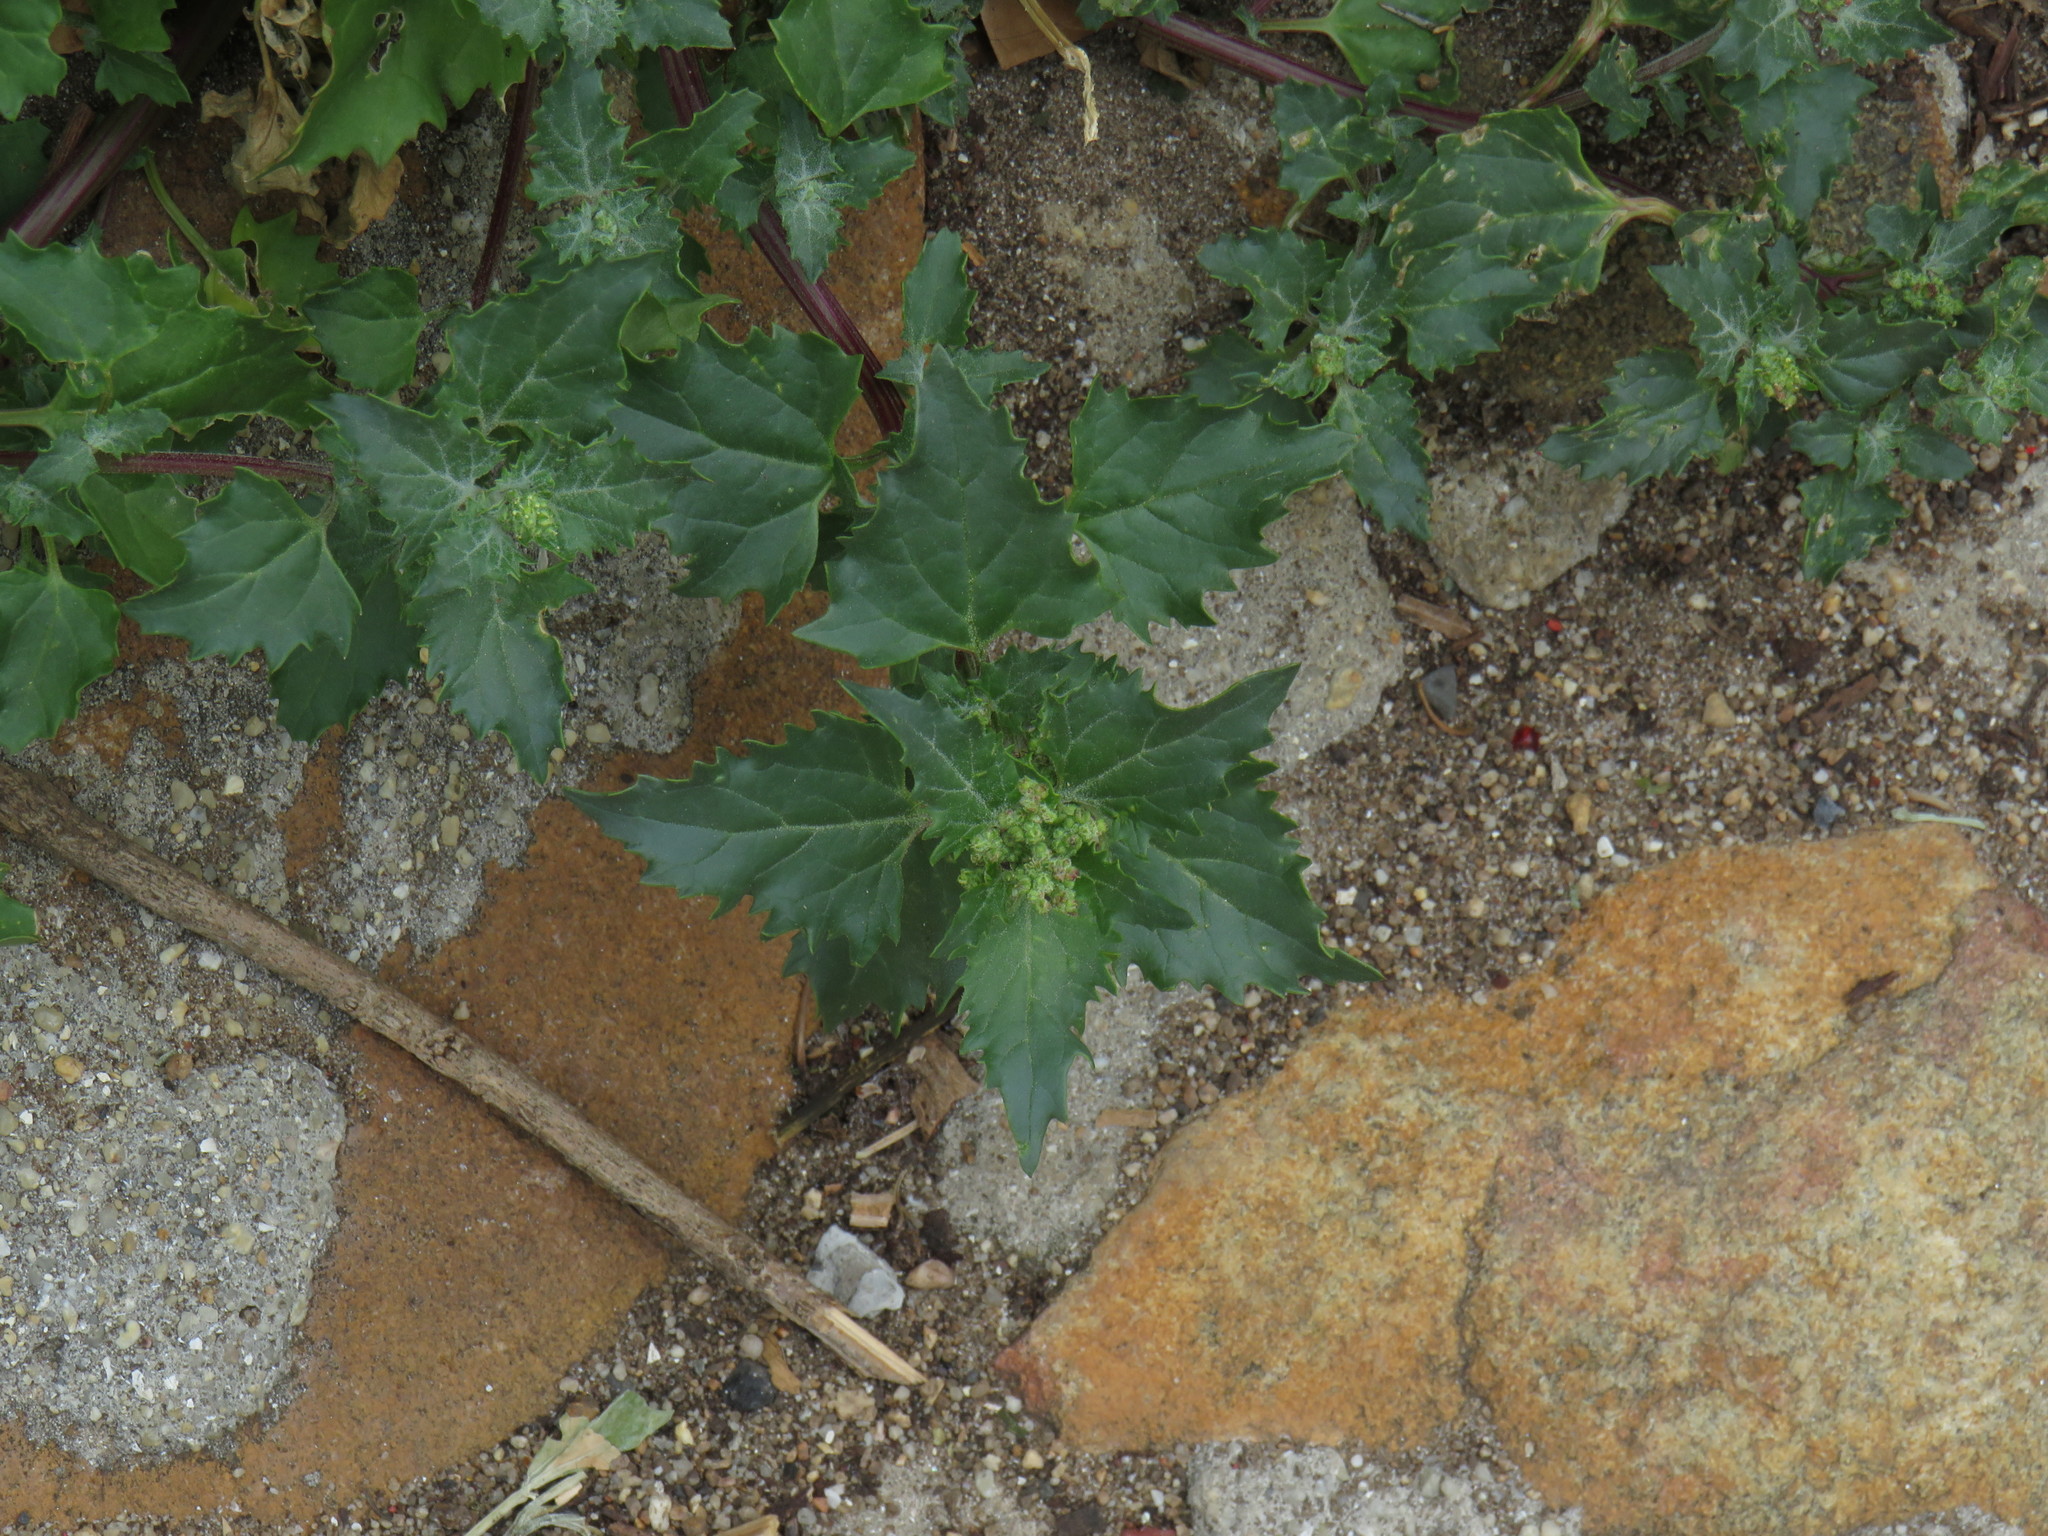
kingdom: Plantae
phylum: Tracheophyta
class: Magnoliopsida
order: Caryophyllales
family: Amaranthaceae
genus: Chenopodiastrum
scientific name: Chenopodiastrum murale
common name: Sowbane
